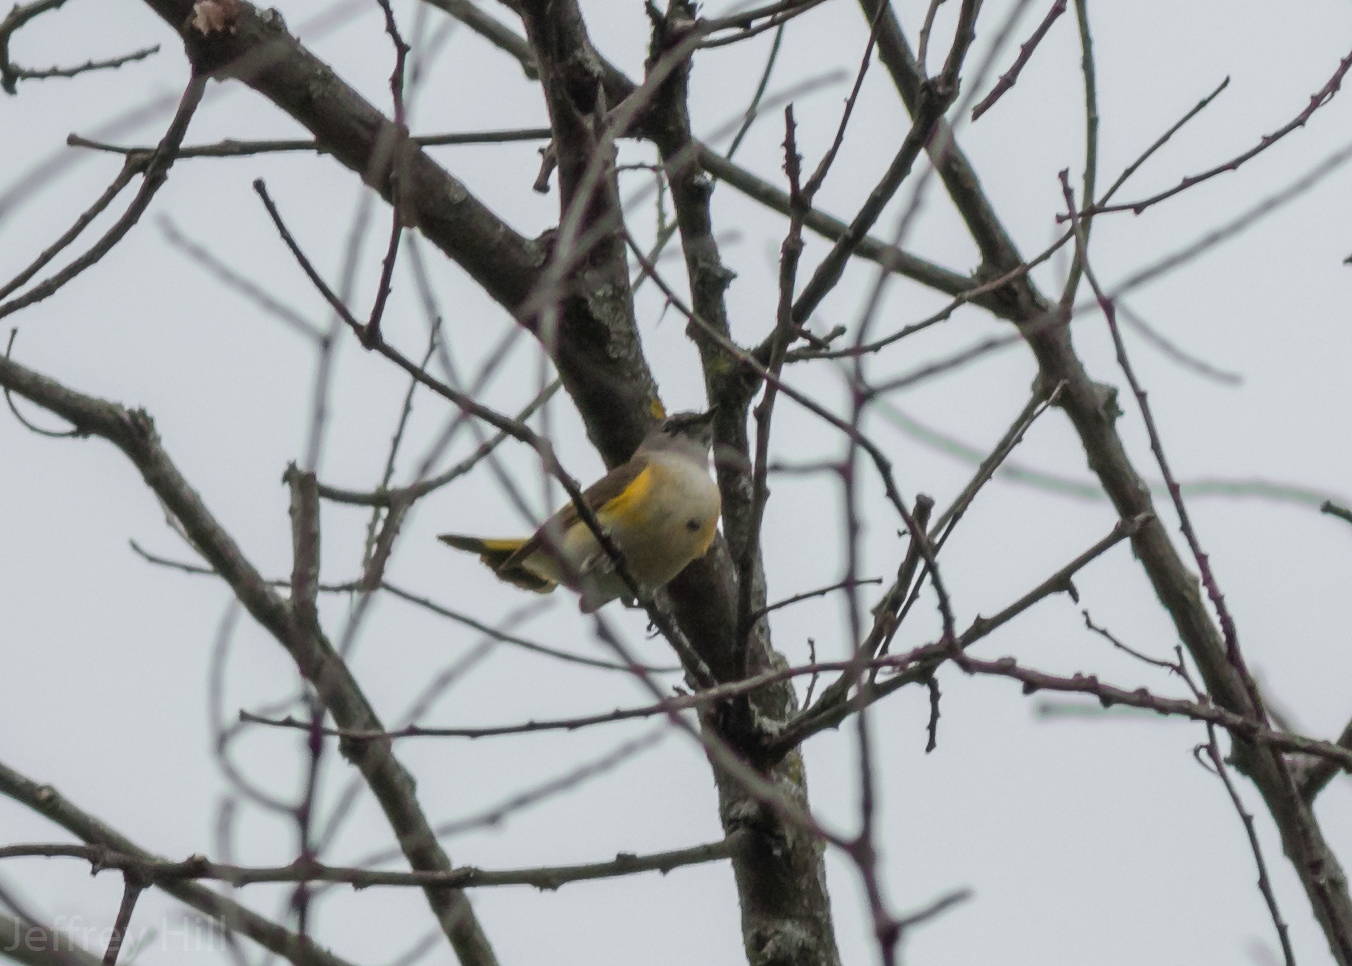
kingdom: Animalia
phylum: Chordata
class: Aves
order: Passeriformes
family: Parulidae
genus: Setophaga
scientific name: Setophaga ruticilla
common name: American redstart
